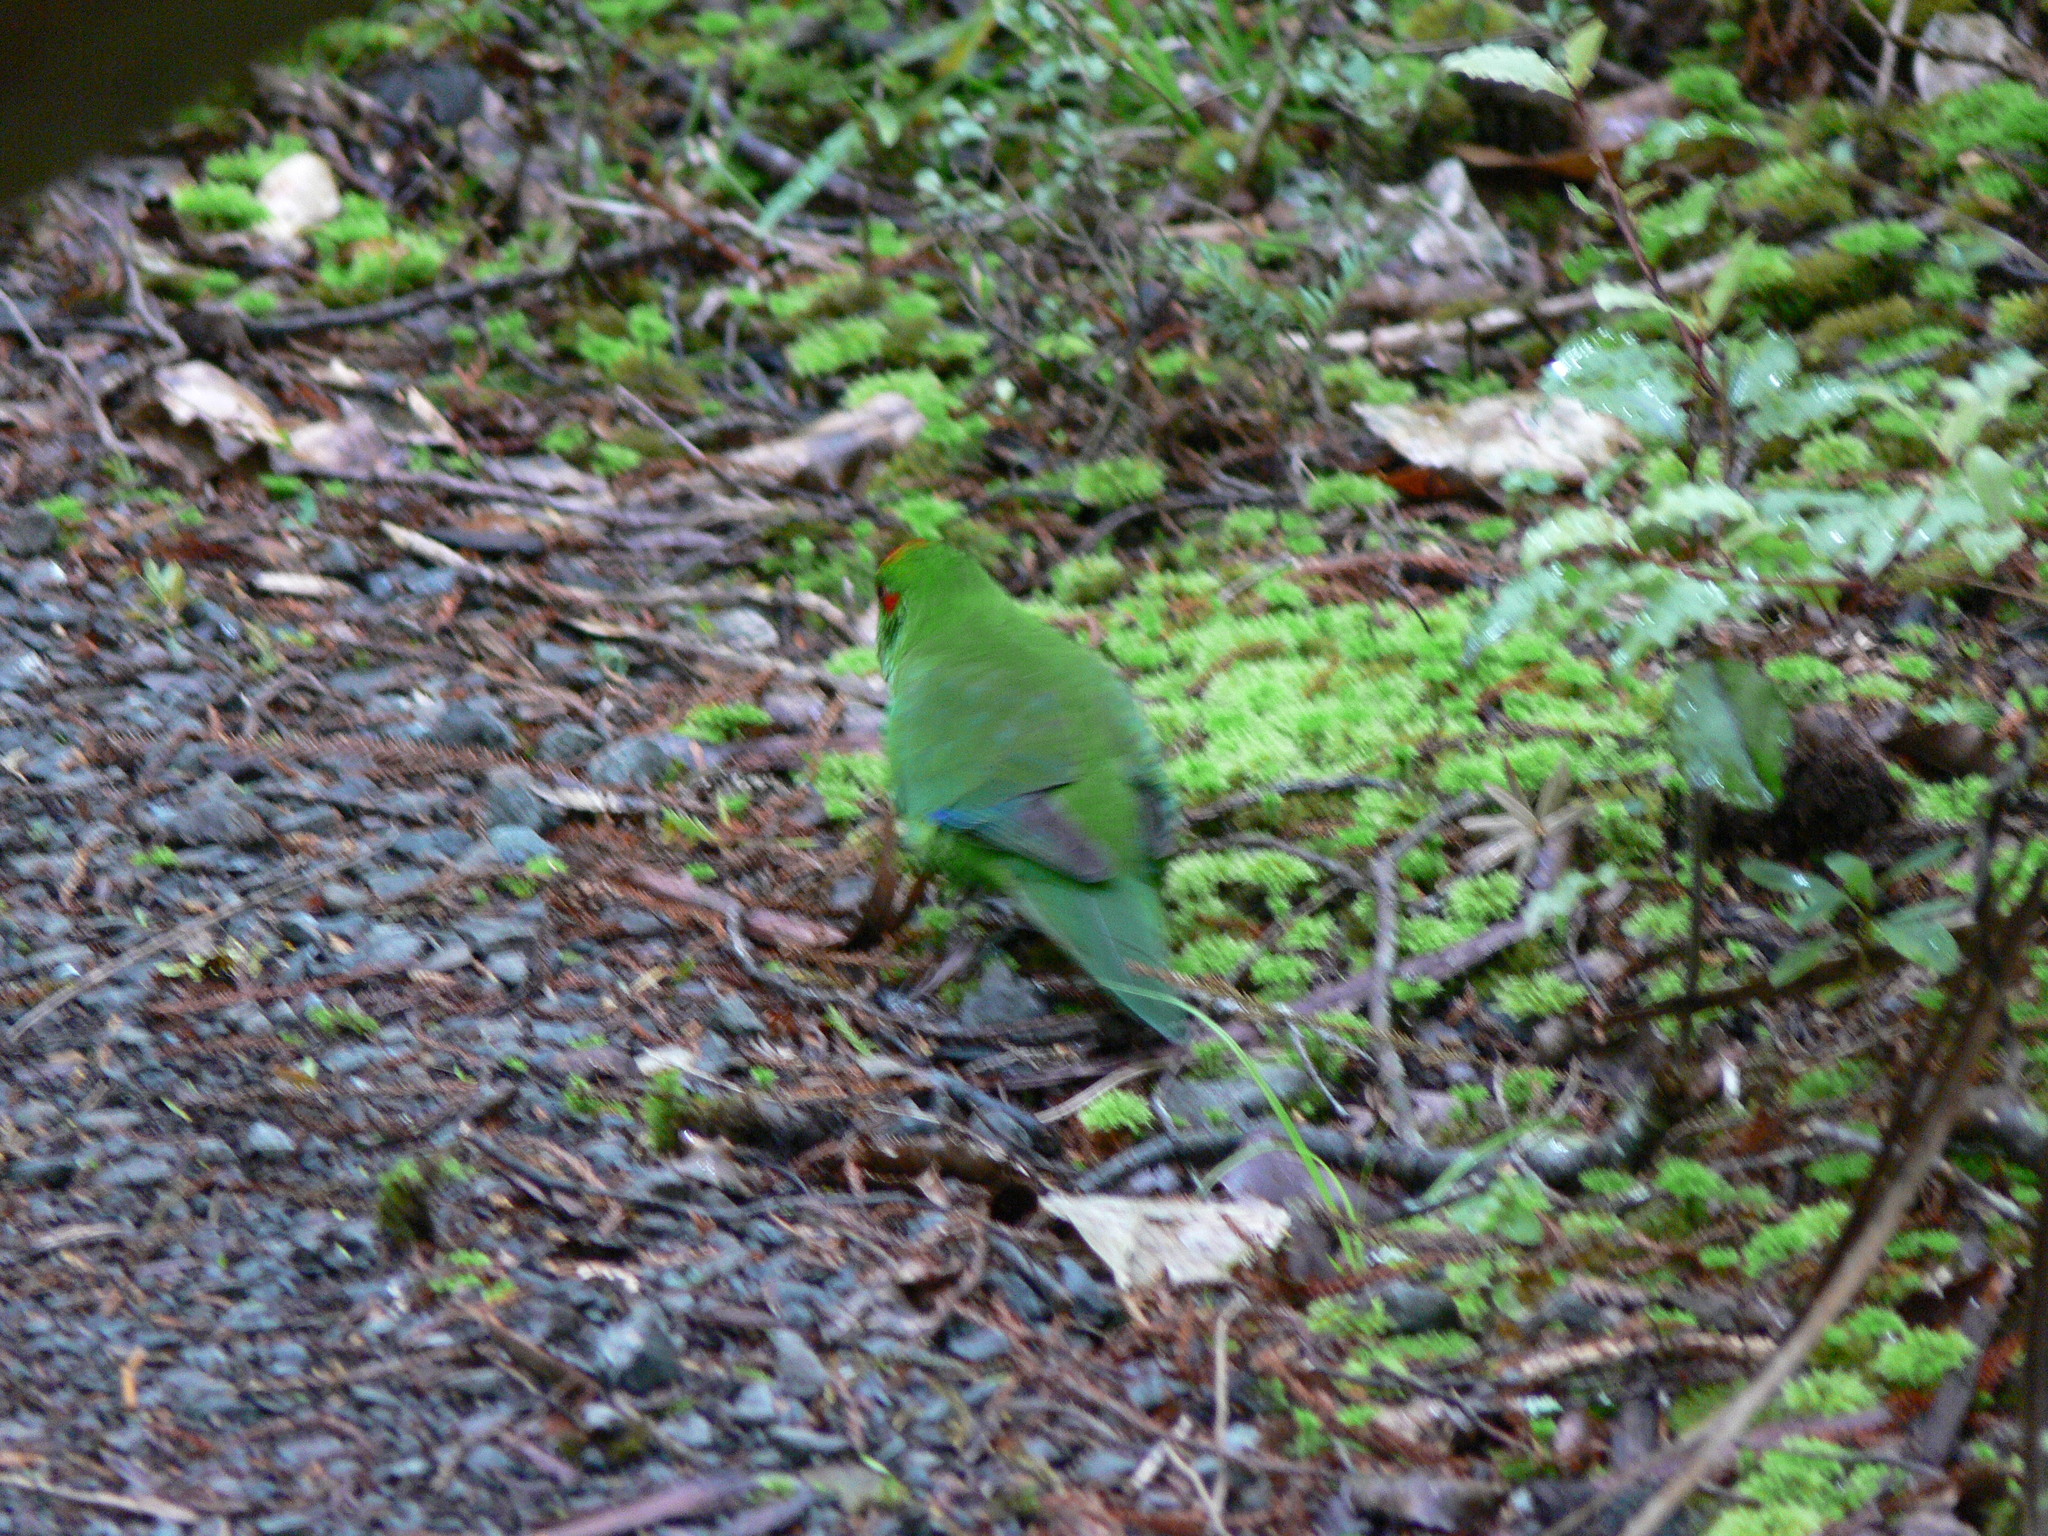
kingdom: Animalia
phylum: Chordata
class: Aves
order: Psittaciformes
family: Psittacidae
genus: Cyanoramphus
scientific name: Cyanoramphus novaezelandiae
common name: Red-fronted parakeet
